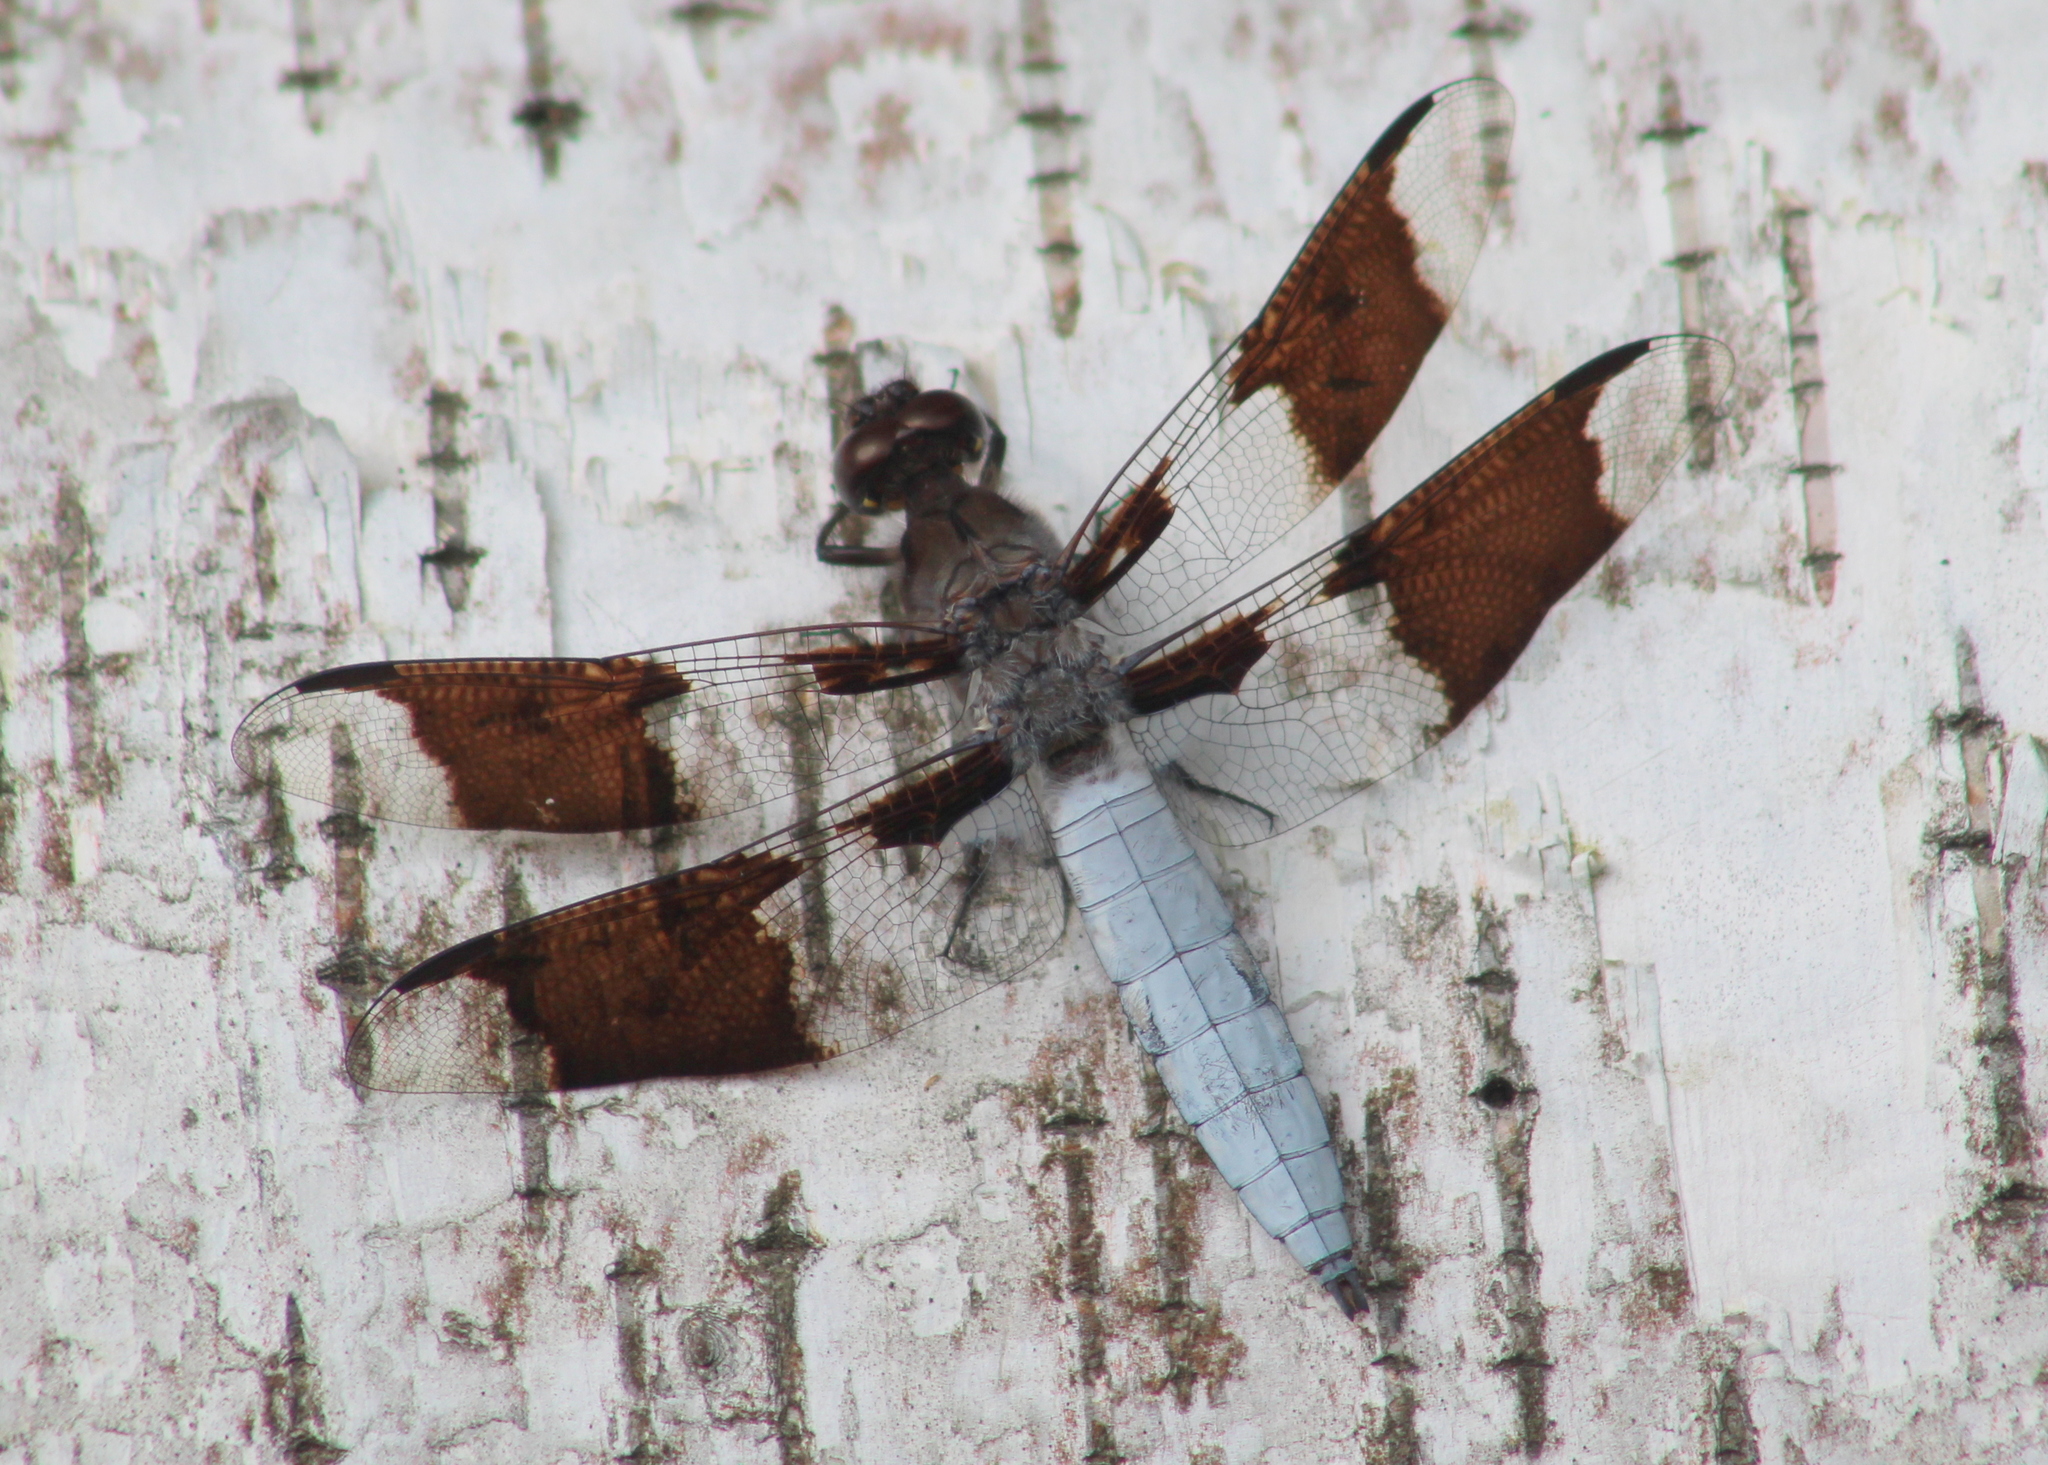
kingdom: Animalia
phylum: Arthropoda
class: Insecta
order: Odonata
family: Libellulidae
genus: Plathemis
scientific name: Plathemis lydia
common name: Common whitetail
